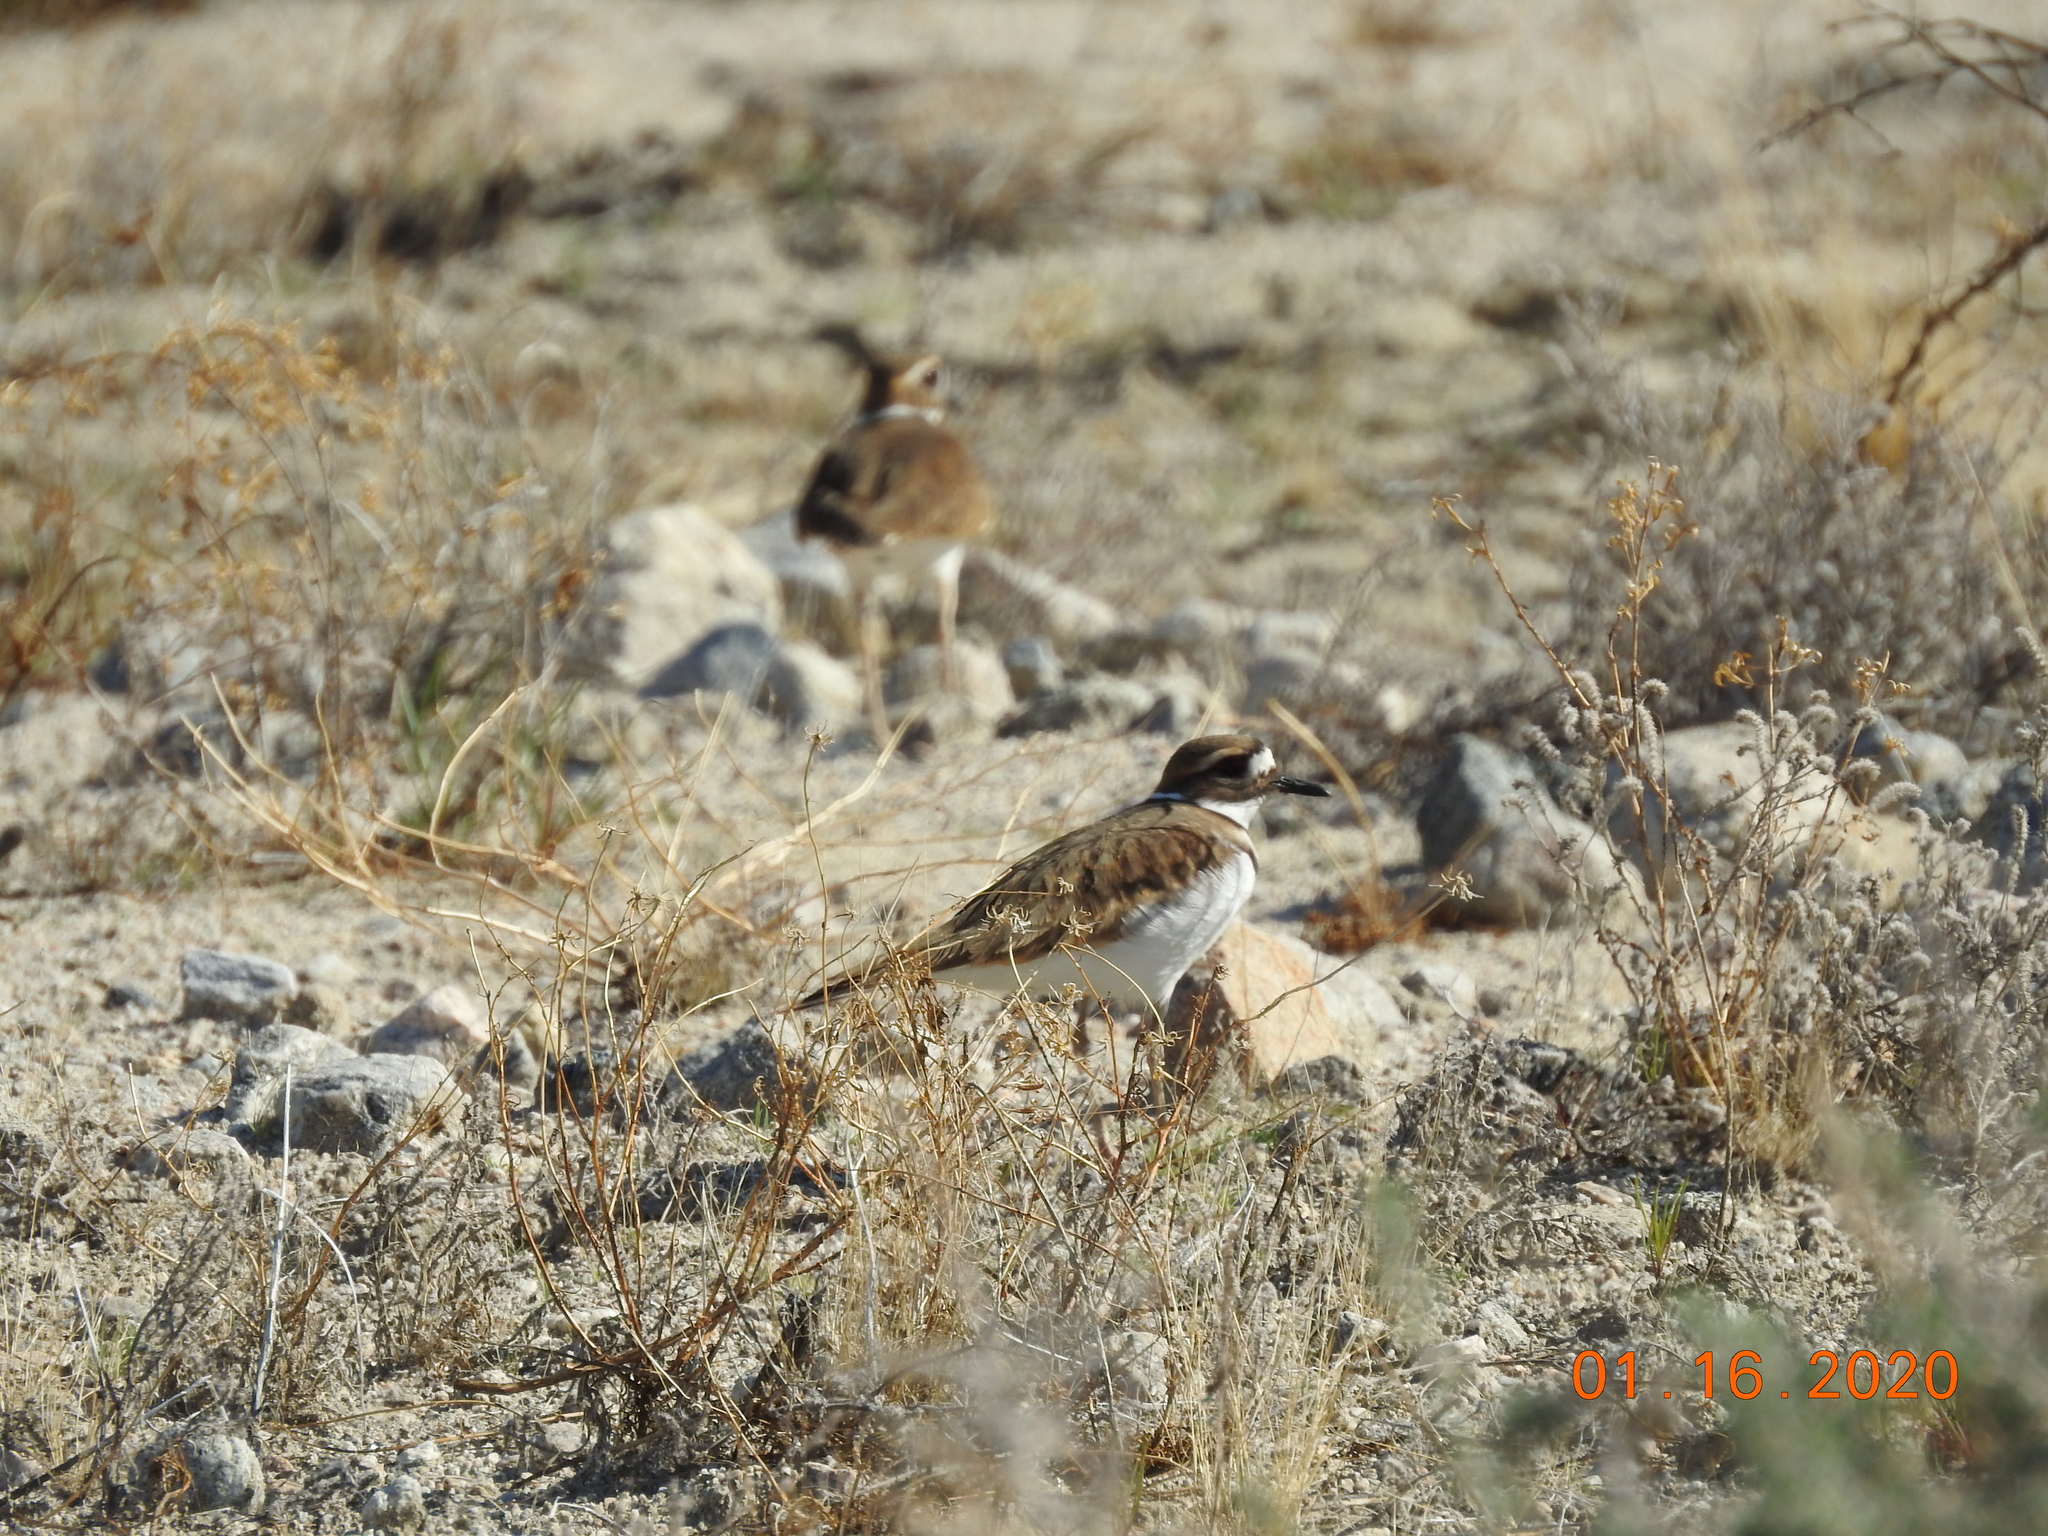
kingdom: Animalia
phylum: Chordata
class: Aves
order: Charadriiformes
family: Charadriidae
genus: Charadrius
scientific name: Charadrius vociferus
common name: Killdeer
